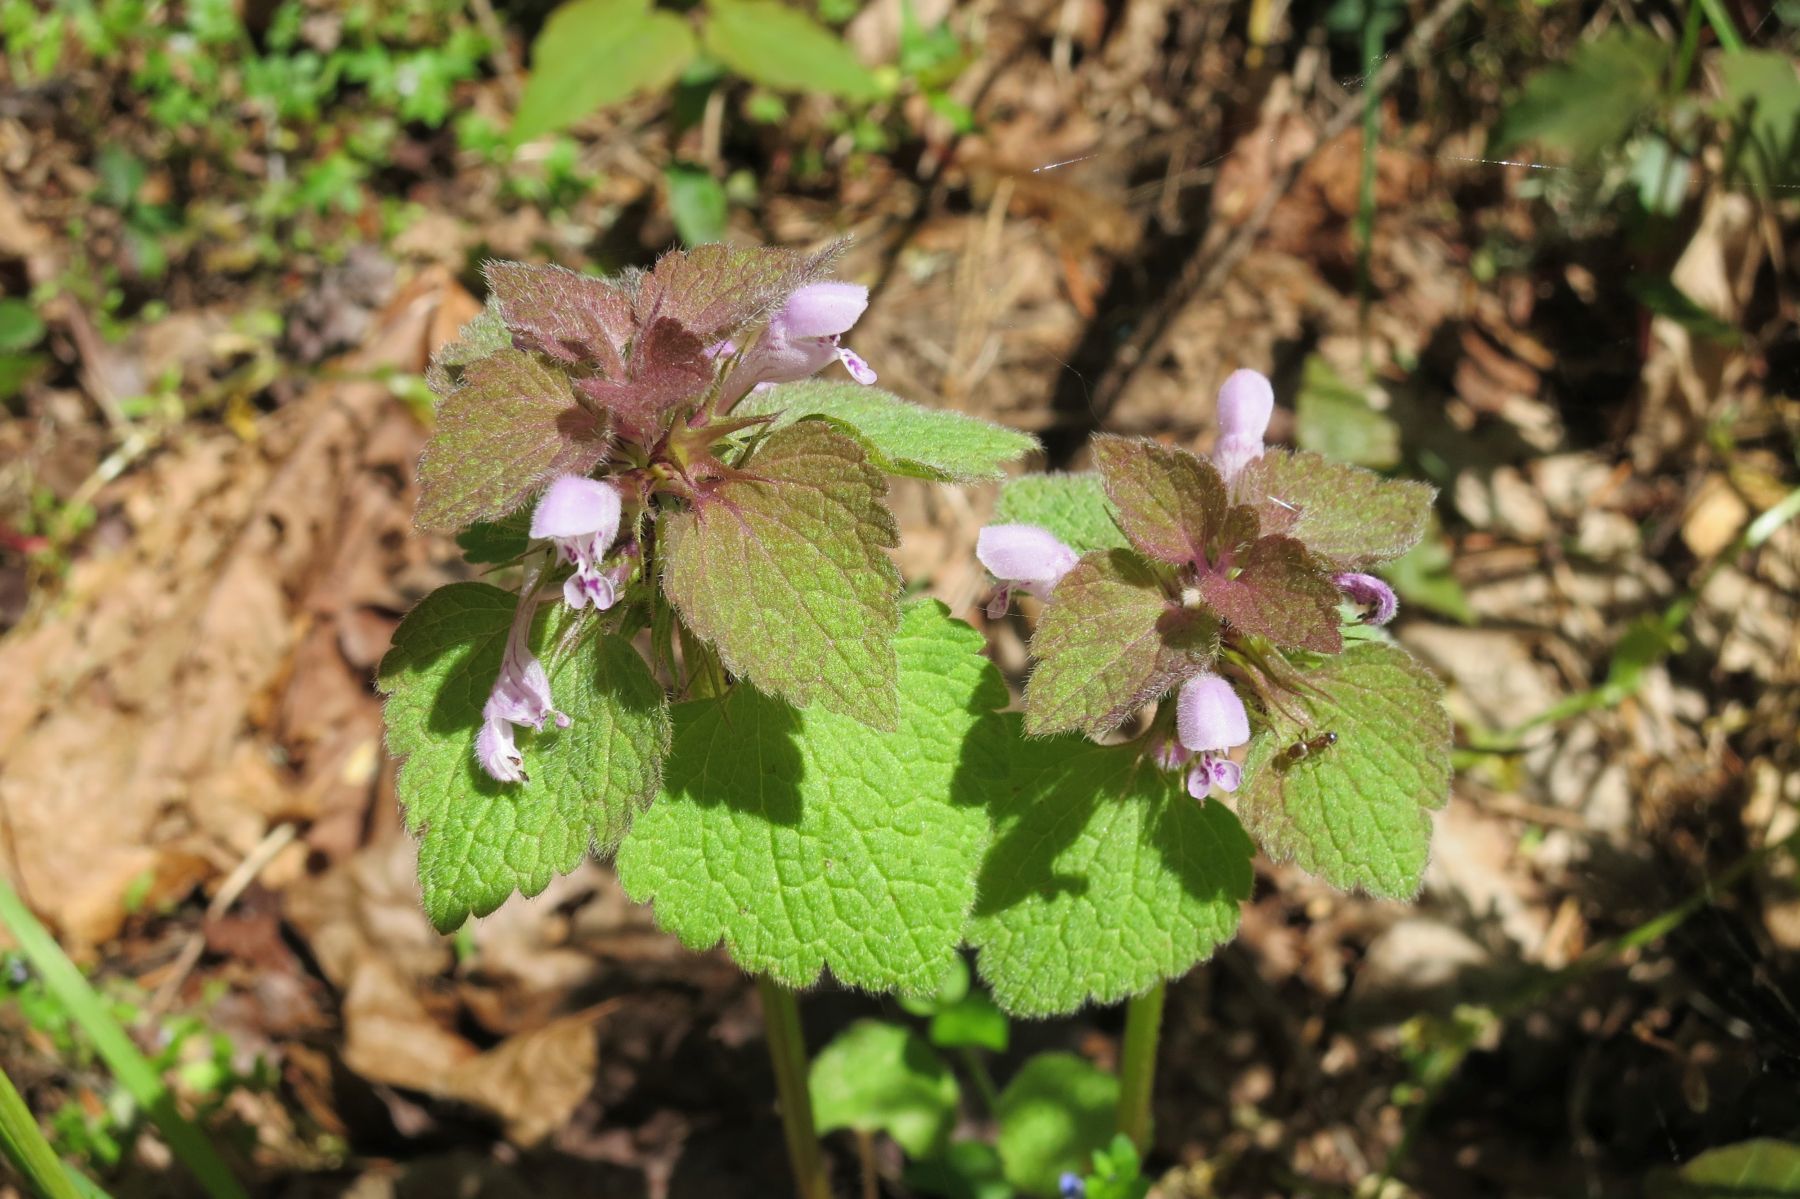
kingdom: Plantae
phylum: Tracheophyta
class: Magnoliopsida
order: Lamiales
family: Lamiaceae
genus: Lamium
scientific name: Lamium purpureum
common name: Red dead-nettle
